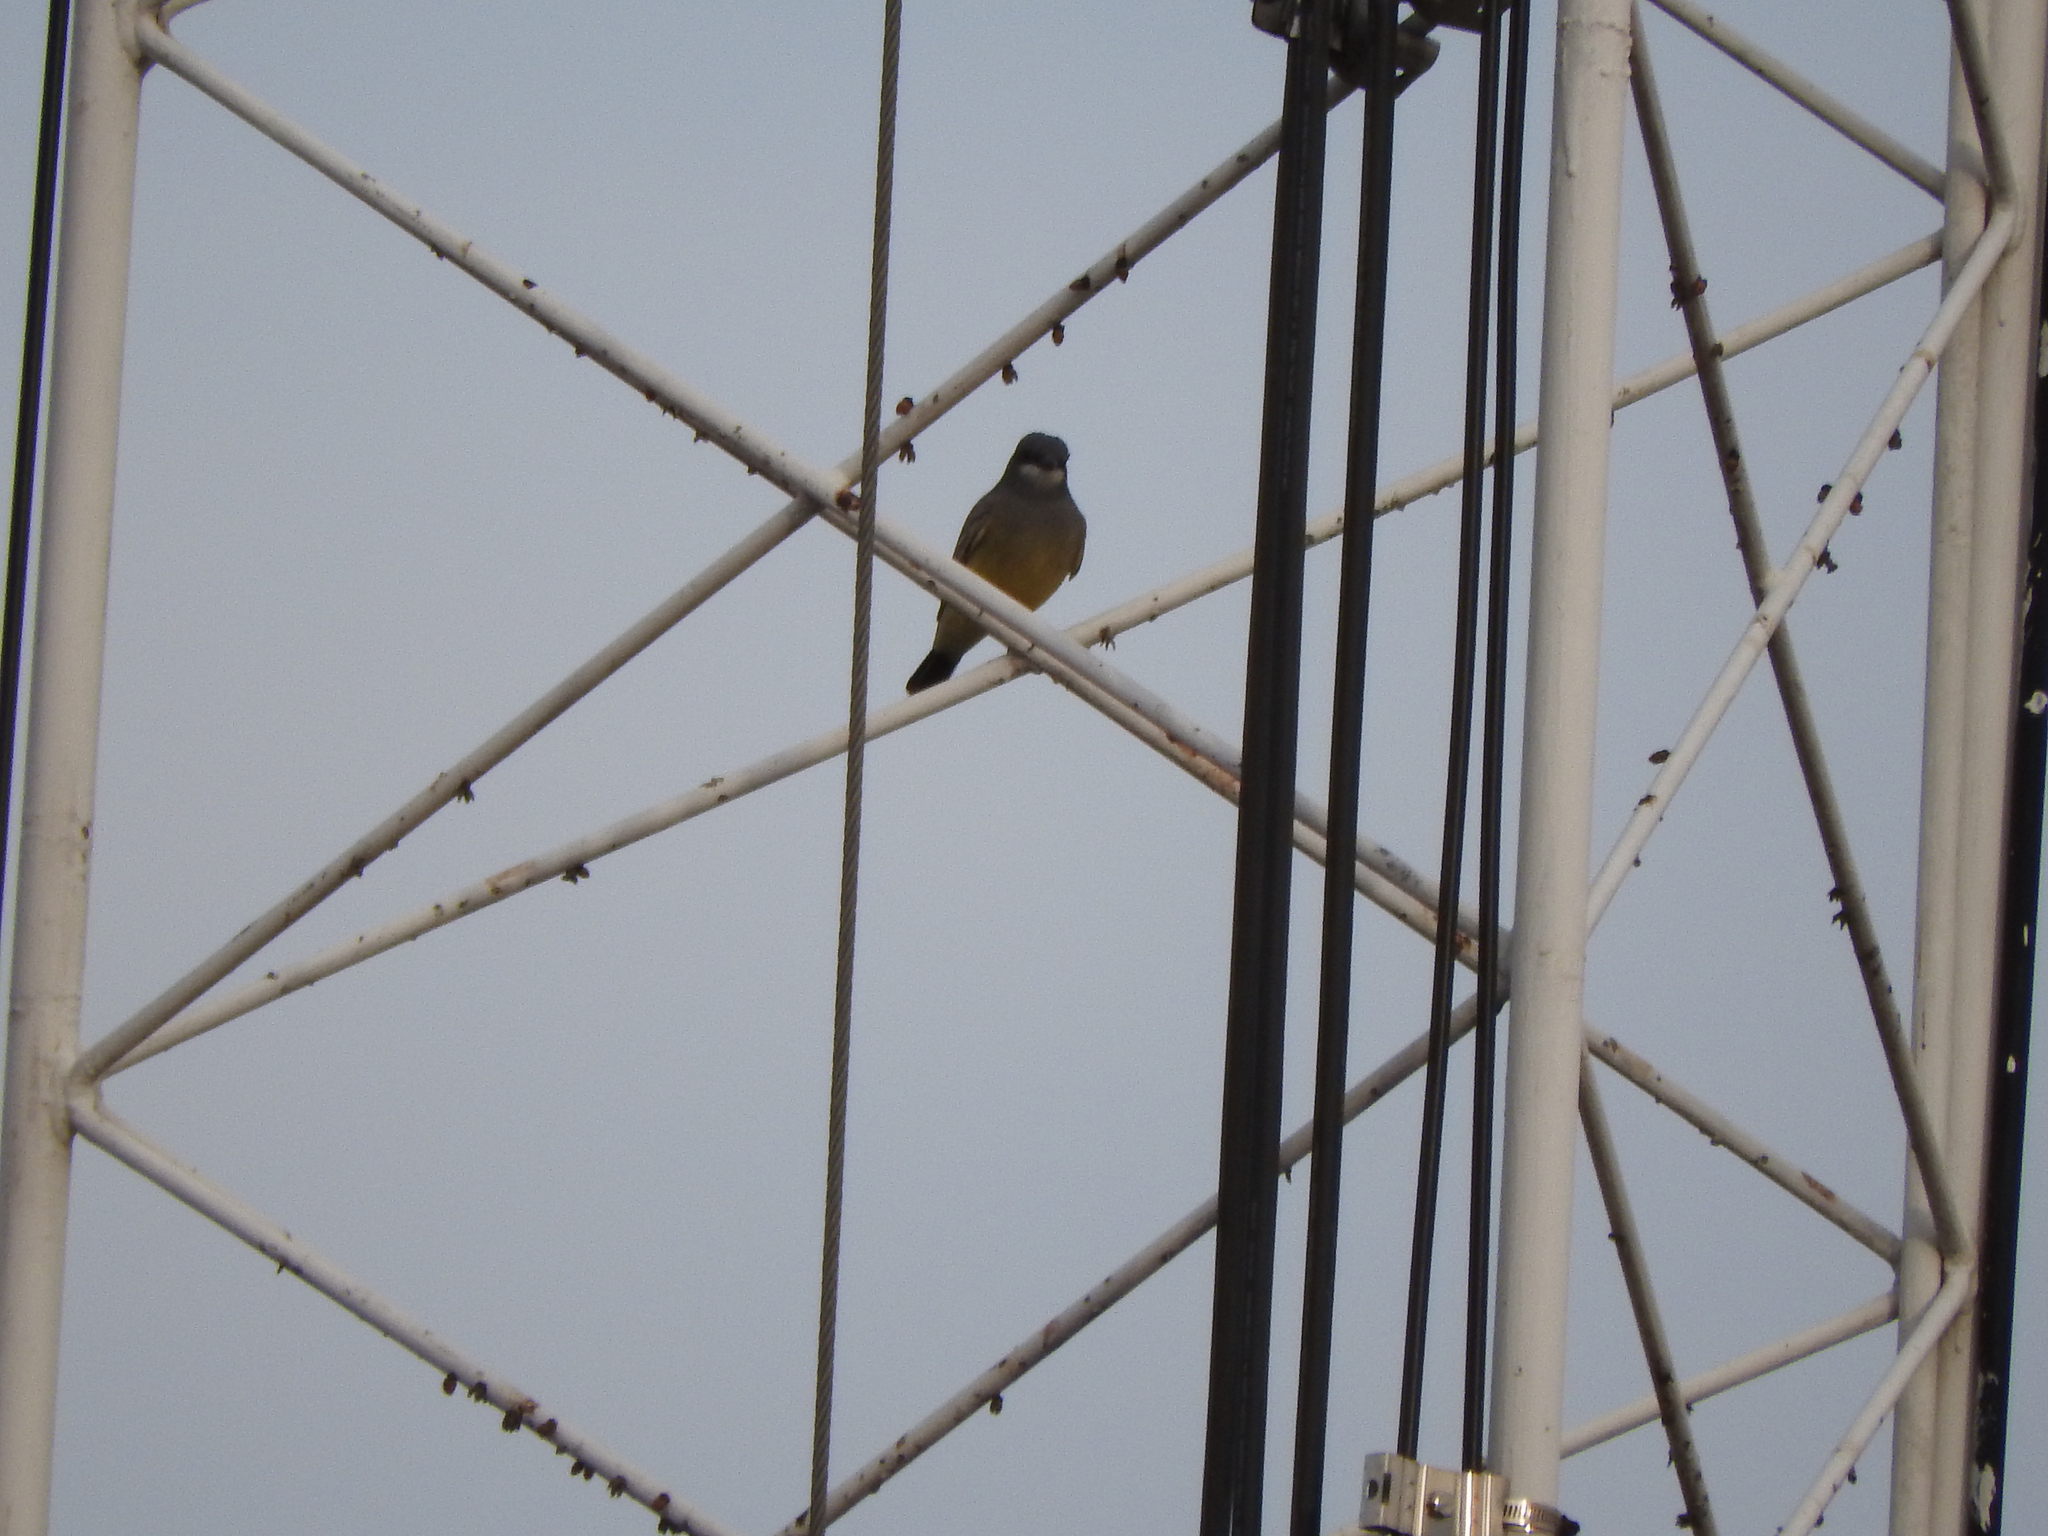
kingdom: Animalia
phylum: Chordata
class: Aves
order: Passeriformes
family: Tyrannidae
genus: Tyrannus
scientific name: Tyrannus vociferans
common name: Cassin's kingbird
